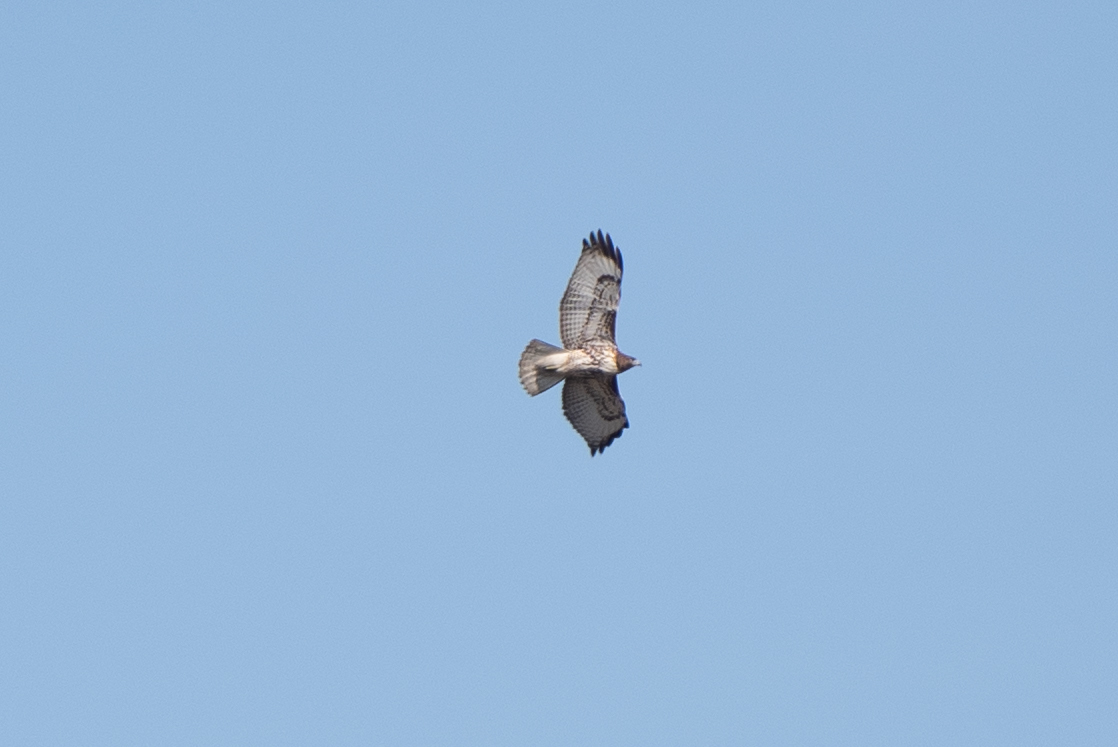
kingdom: Animalia
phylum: Chordata
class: Aves
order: Accipitriformes
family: Accipitridae
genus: Buteo
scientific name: Buteo jamaicensis
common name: Red-tailed hawk
